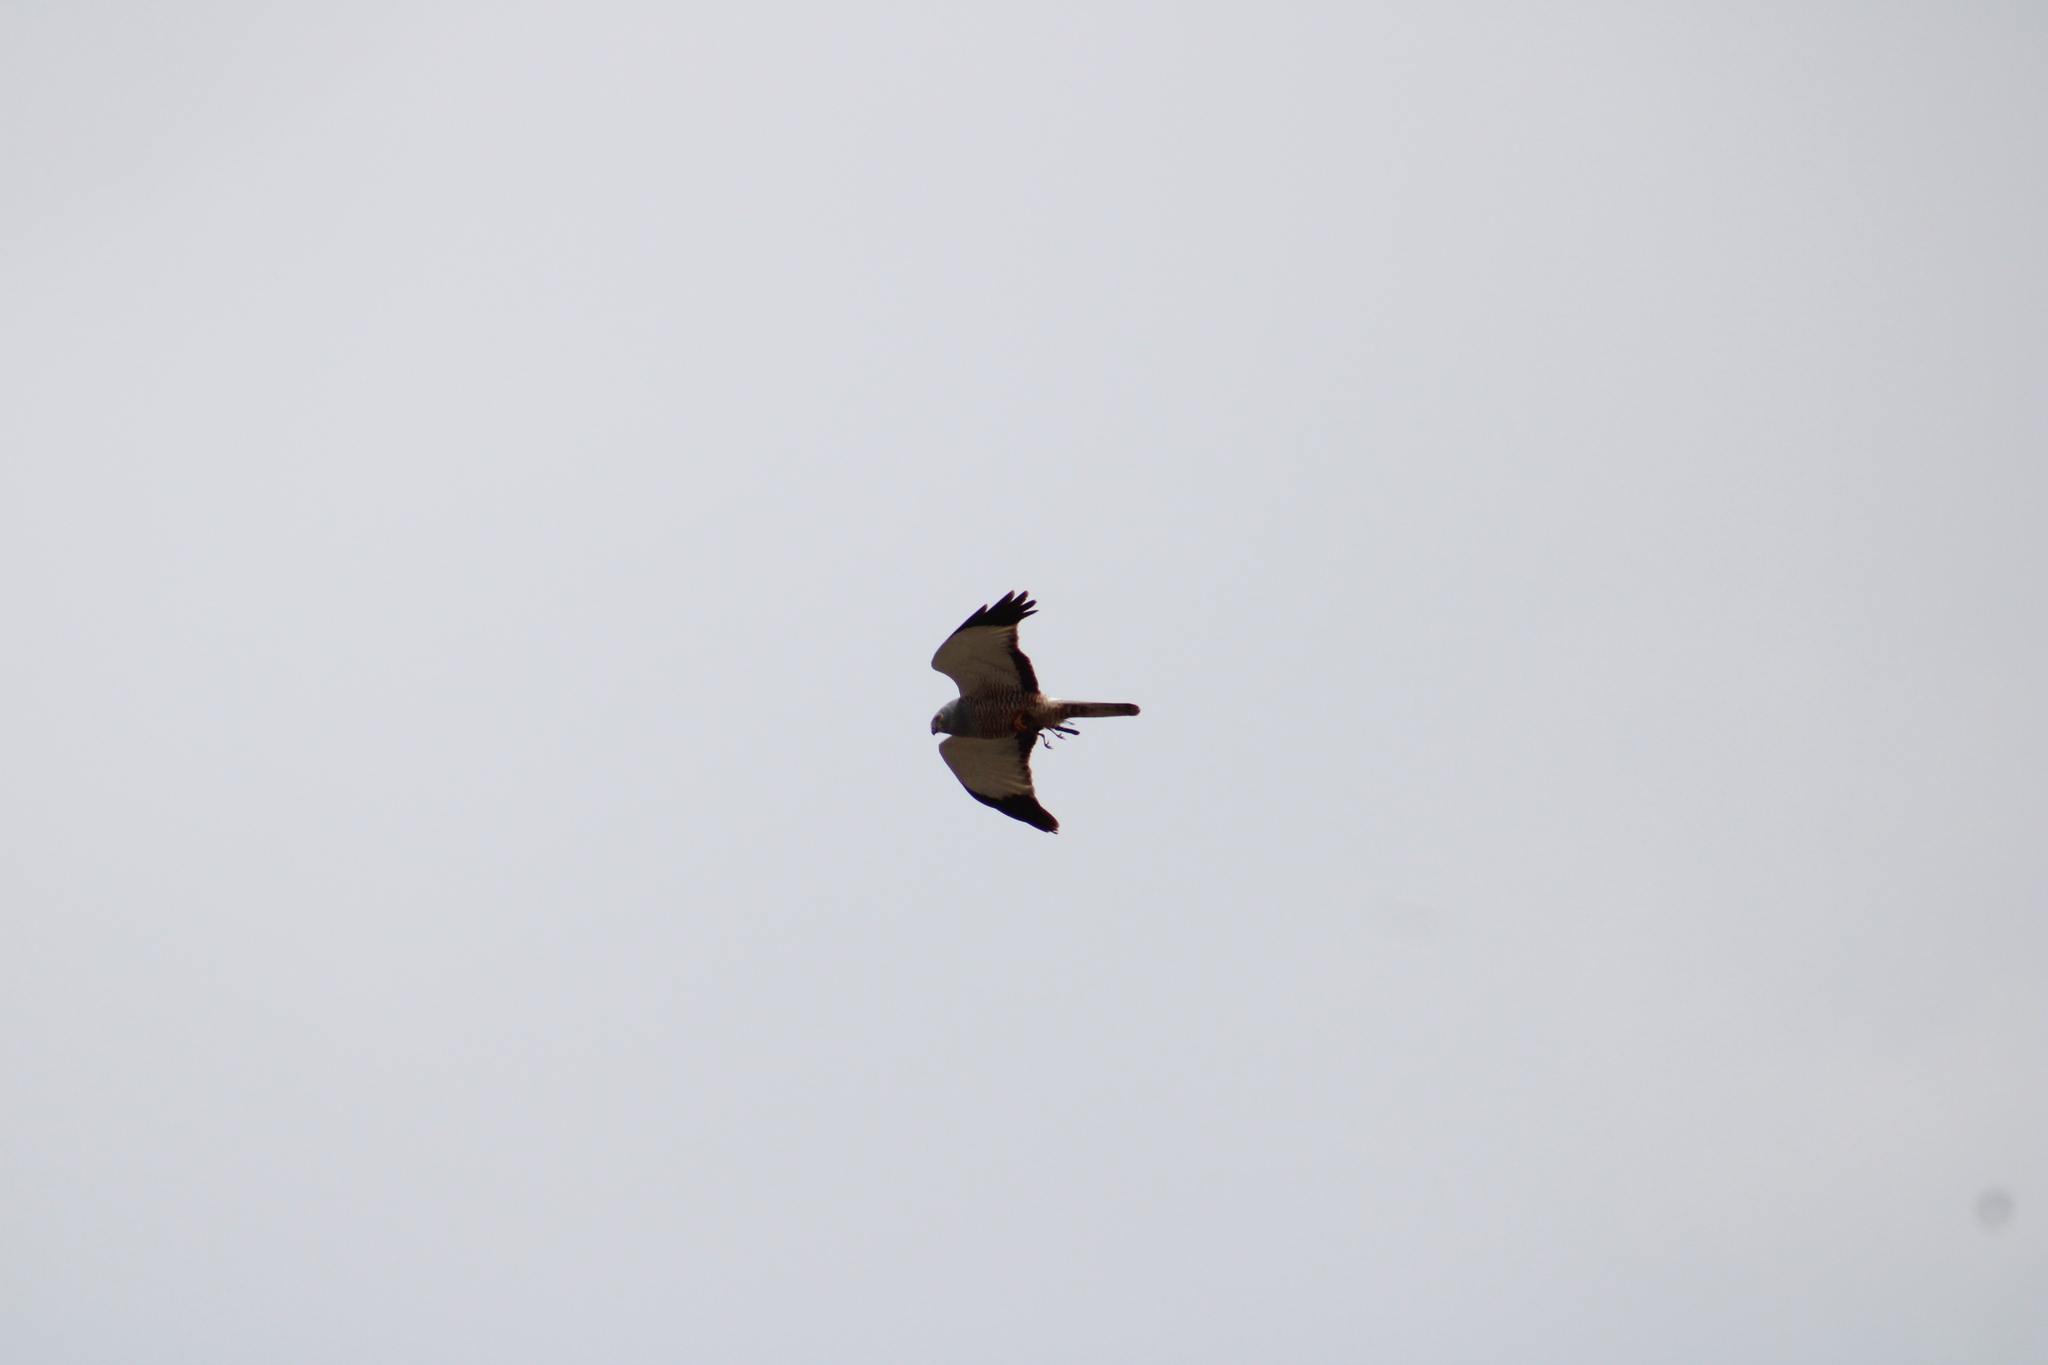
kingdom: Animalia
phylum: Chordata
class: Aves
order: Accipitriformes
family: Accipitridae
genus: Circus
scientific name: Circus cinereus
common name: Cinereous harrier
